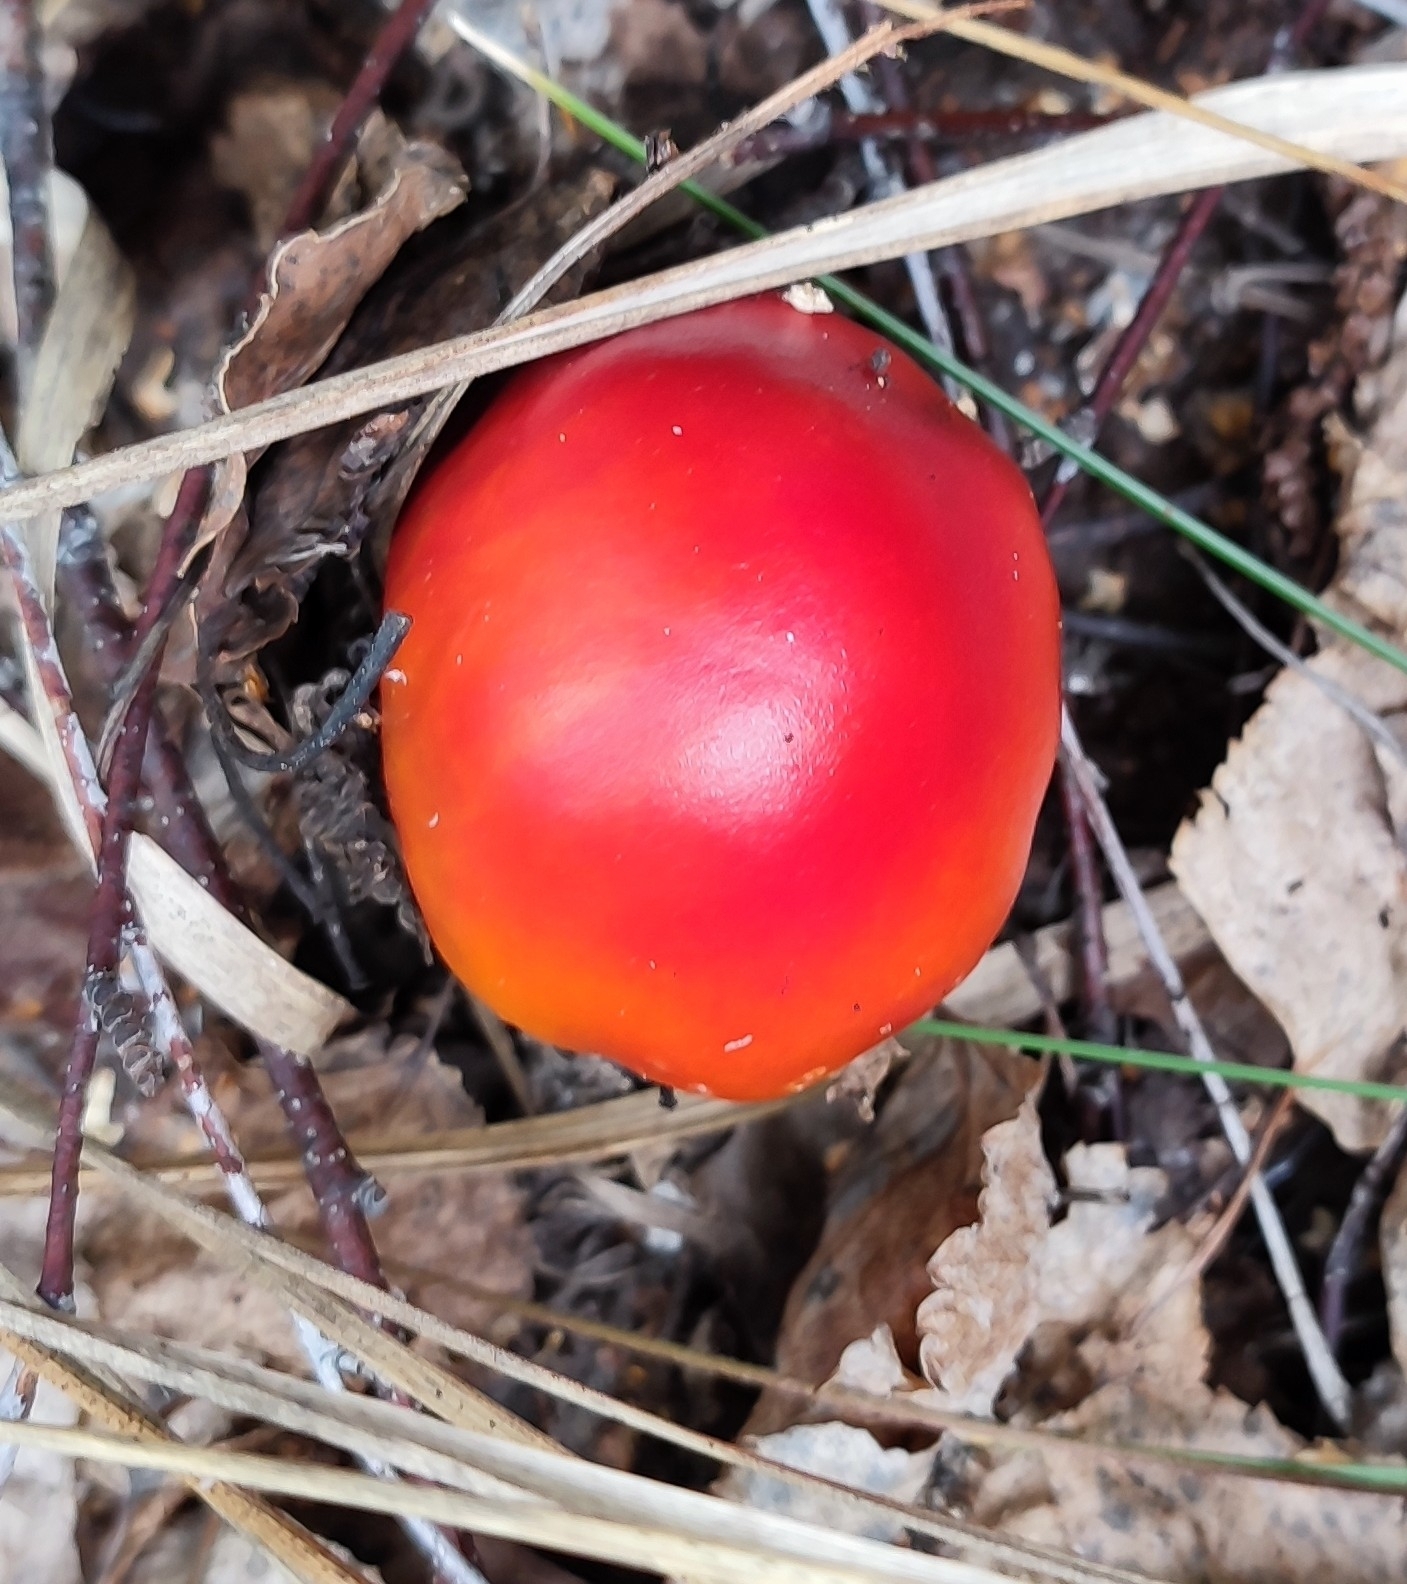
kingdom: Fungi
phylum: Basidiomycota
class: Agaricomycetes
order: Agaricales
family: Amanitaceae
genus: Amanita
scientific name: Amanita muscaria
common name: Fly agaric
